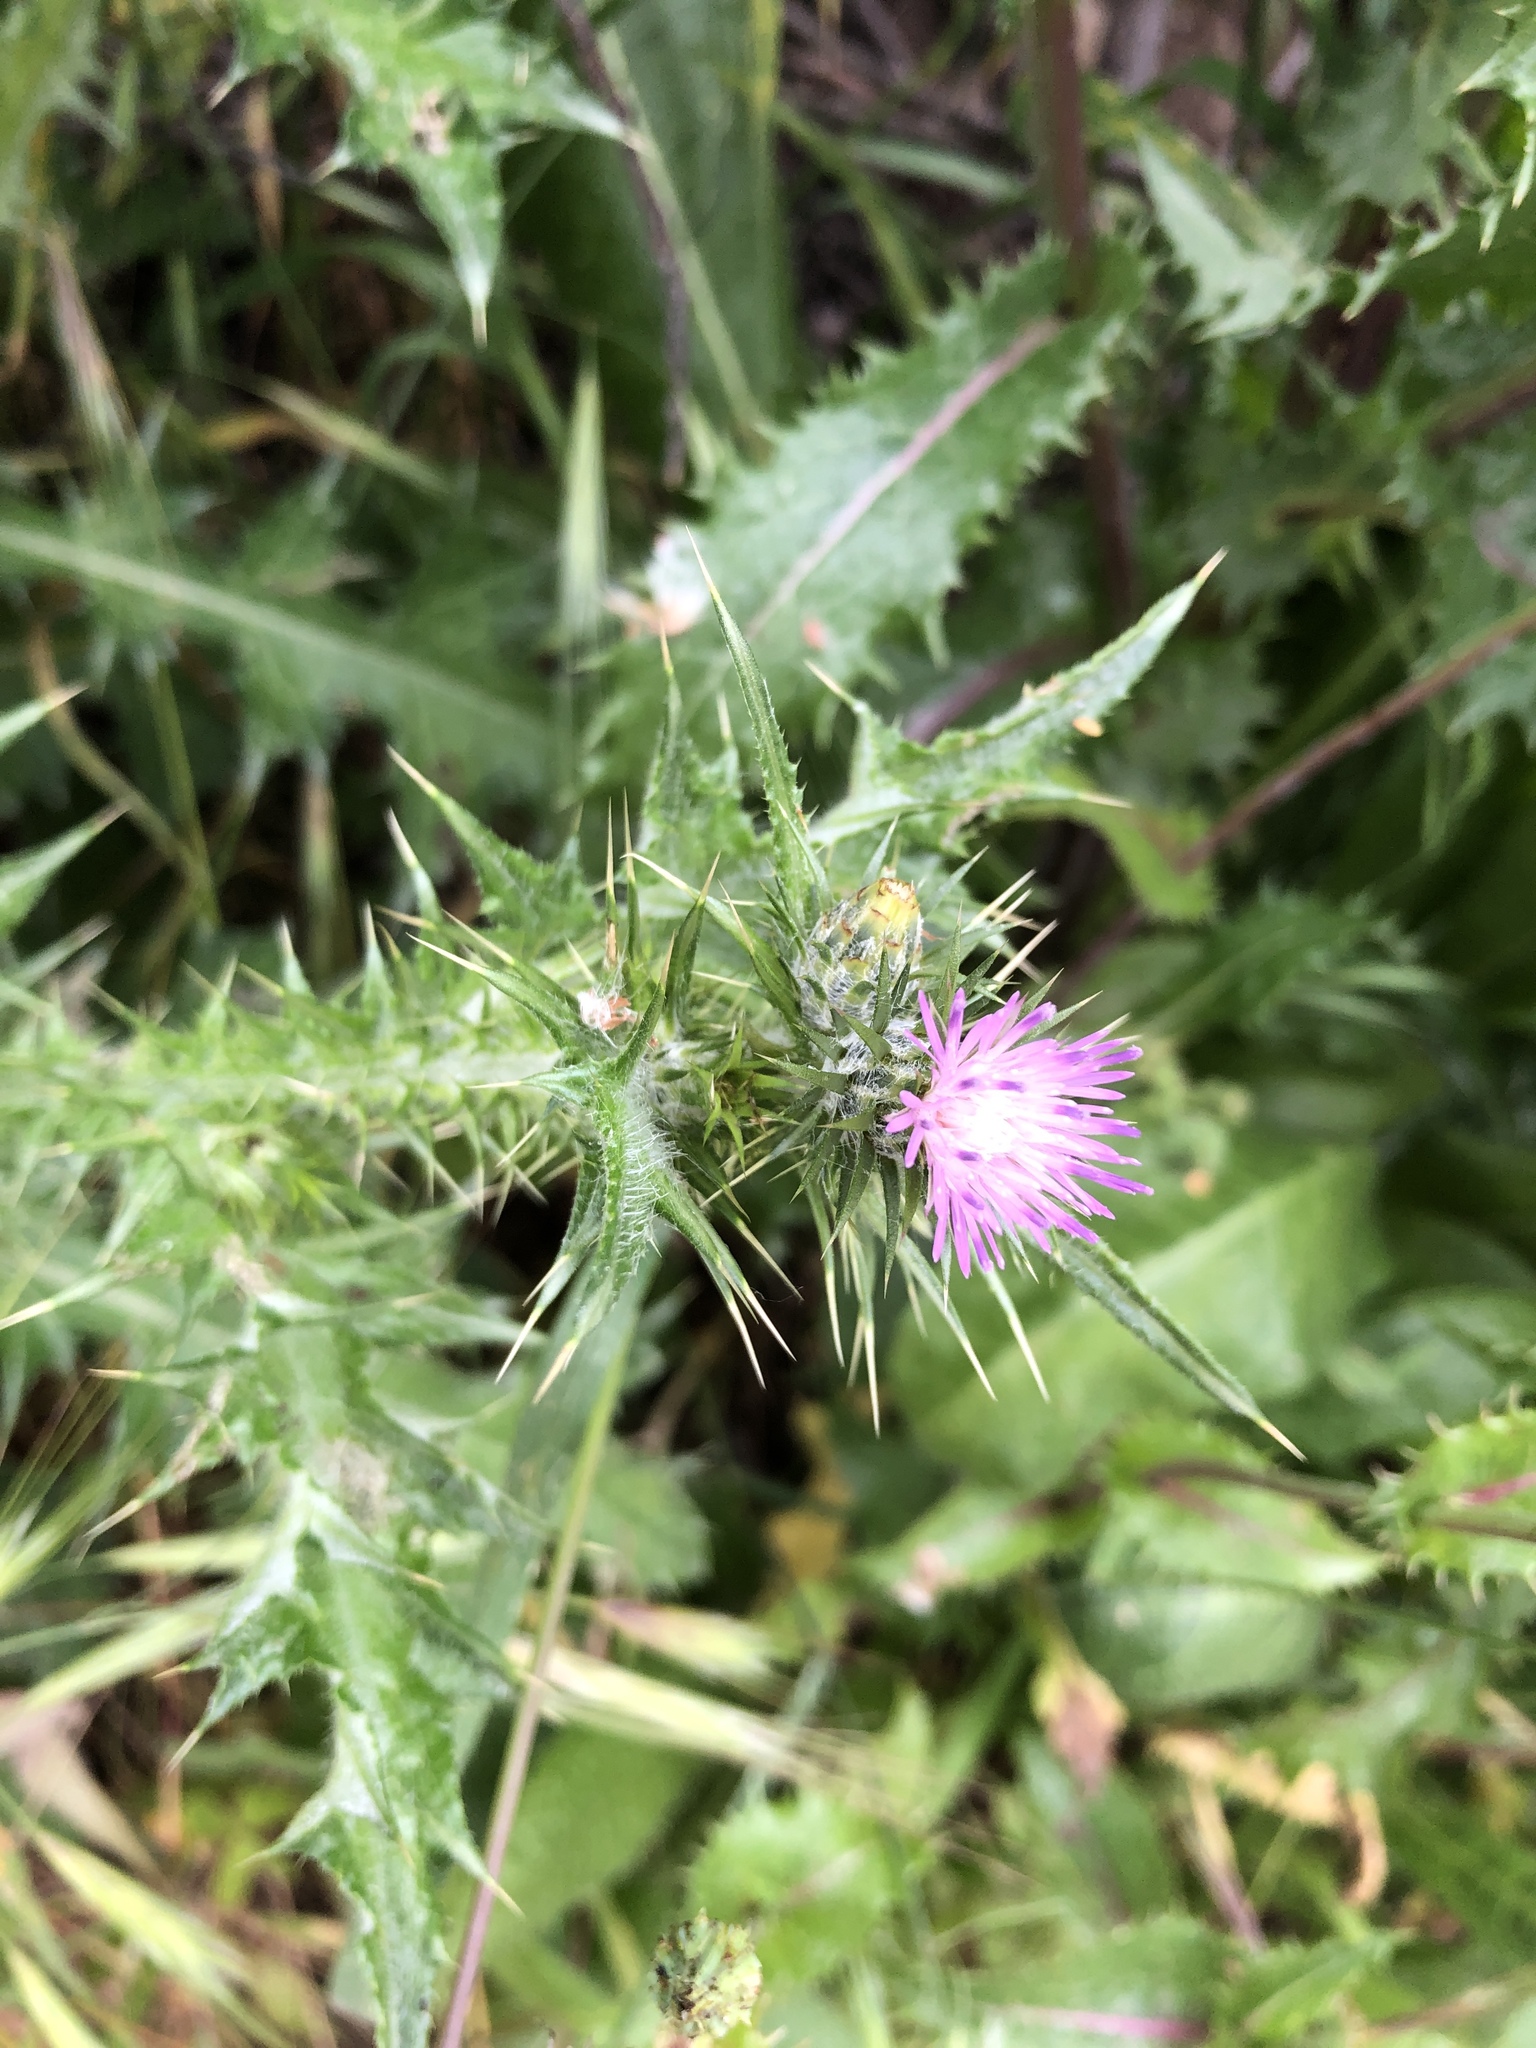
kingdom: Plantae
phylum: Tracheophyta
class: Magnoliopsida
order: Asterales
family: Asteraceae
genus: Carduus
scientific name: Carduus pycnocephalus
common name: Plymouth thistle
